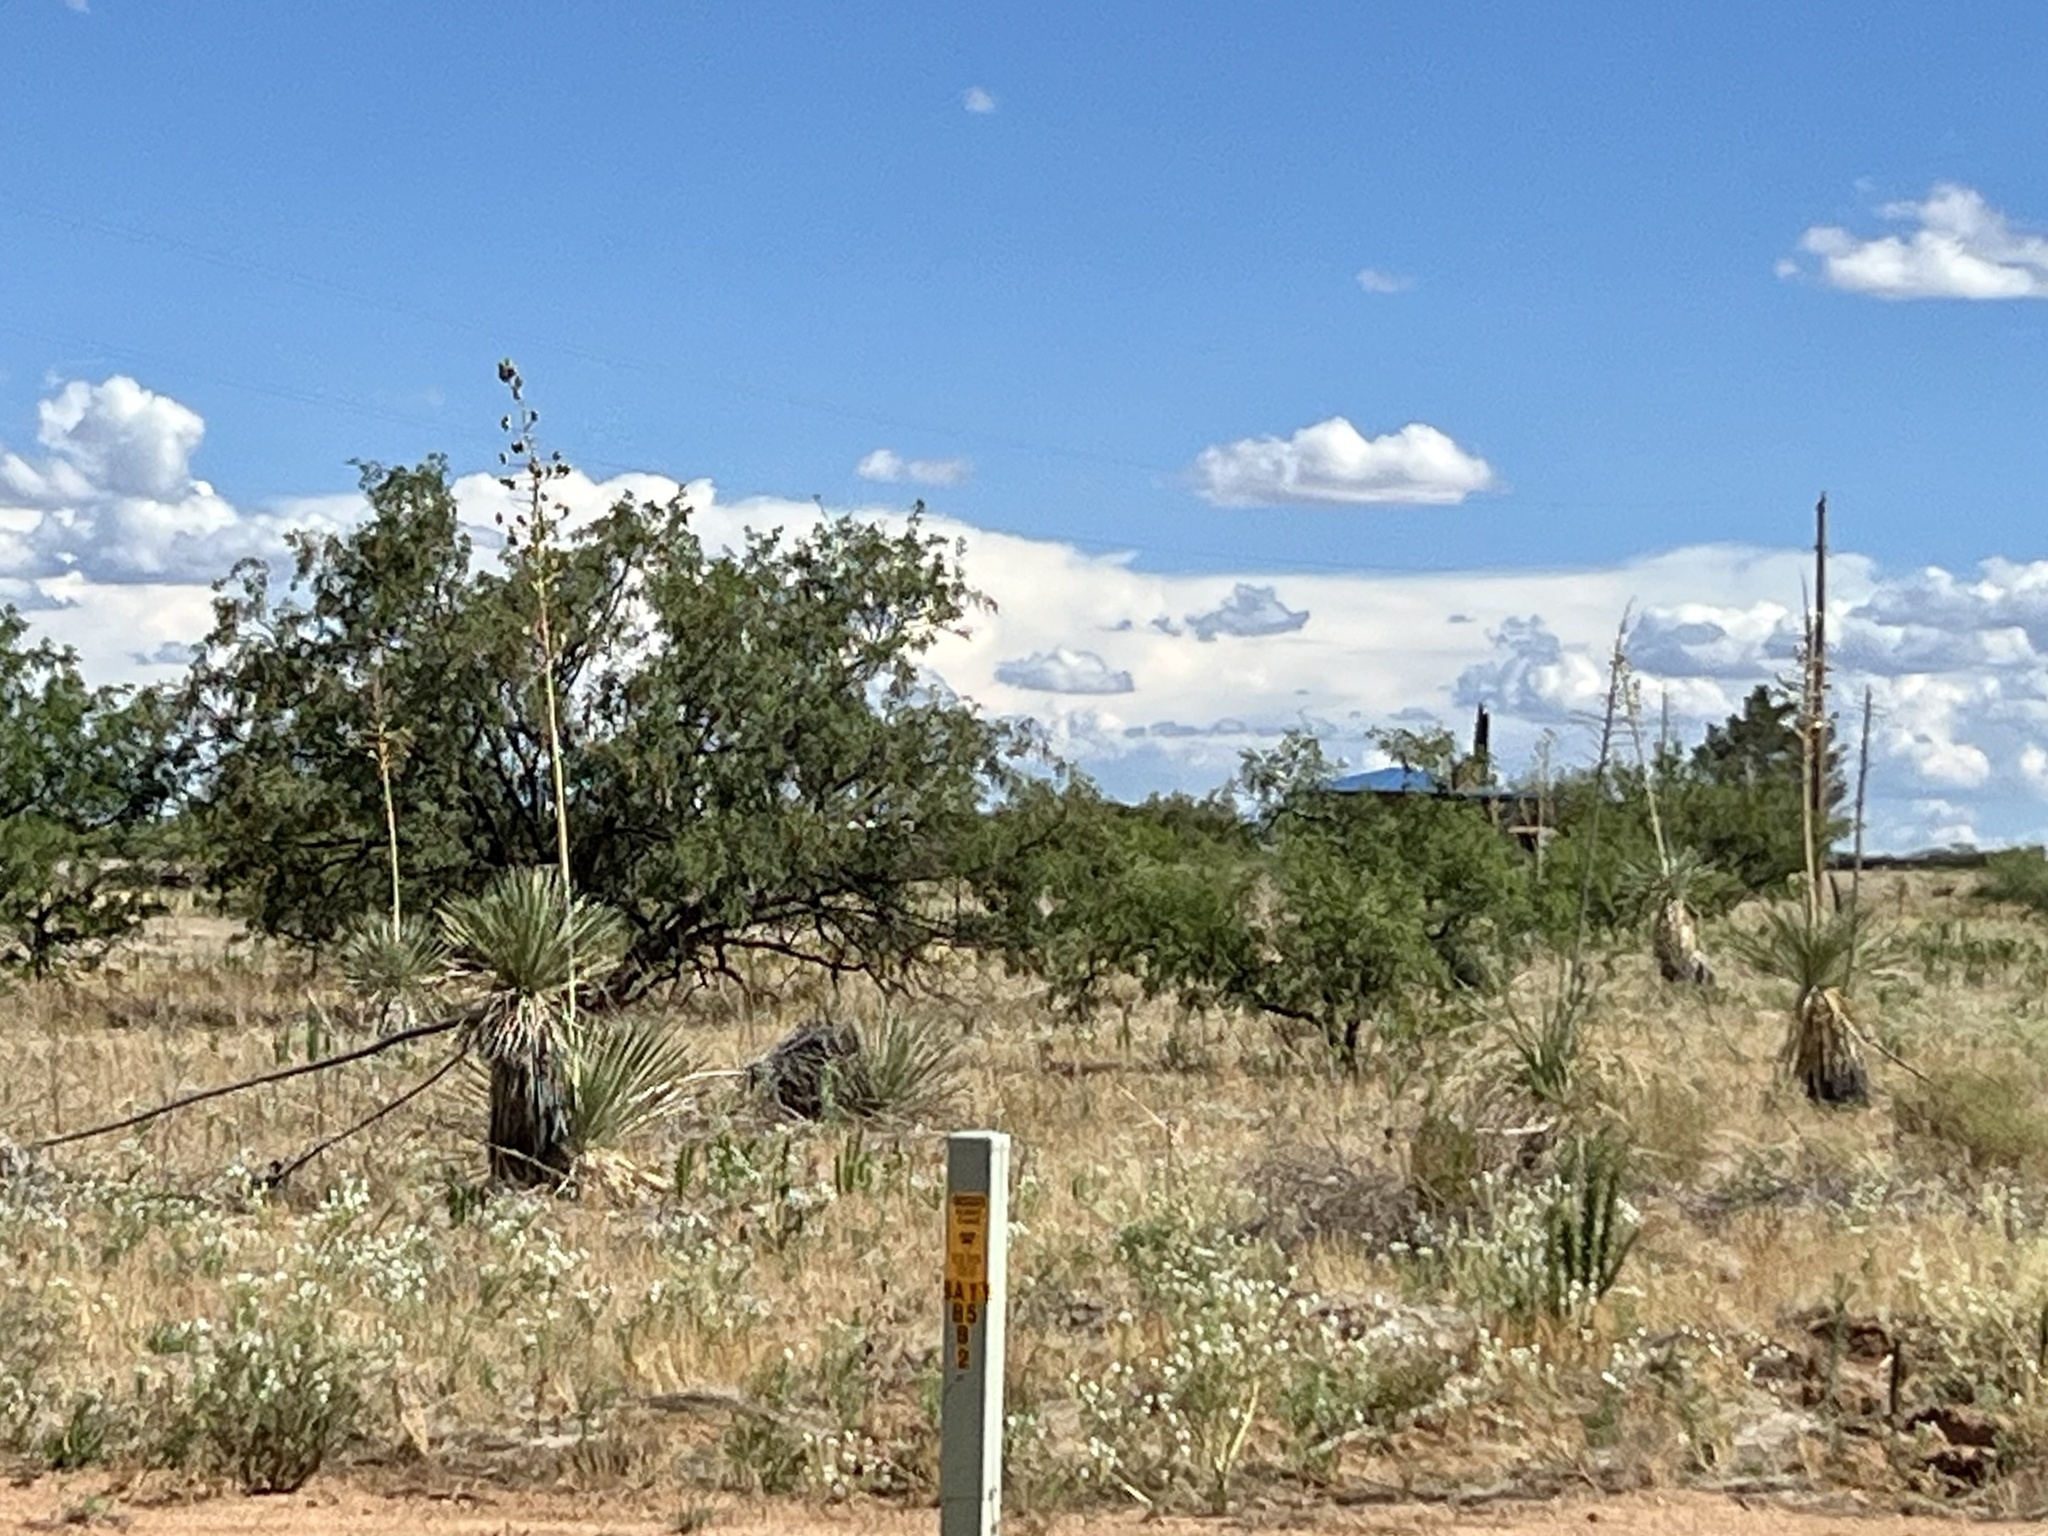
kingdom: Plantae
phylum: Tracheophyta
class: Liliopsida
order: Asparagales
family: Asparagaceae
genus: Yucca
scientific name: Yucca elata
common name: Palmella
